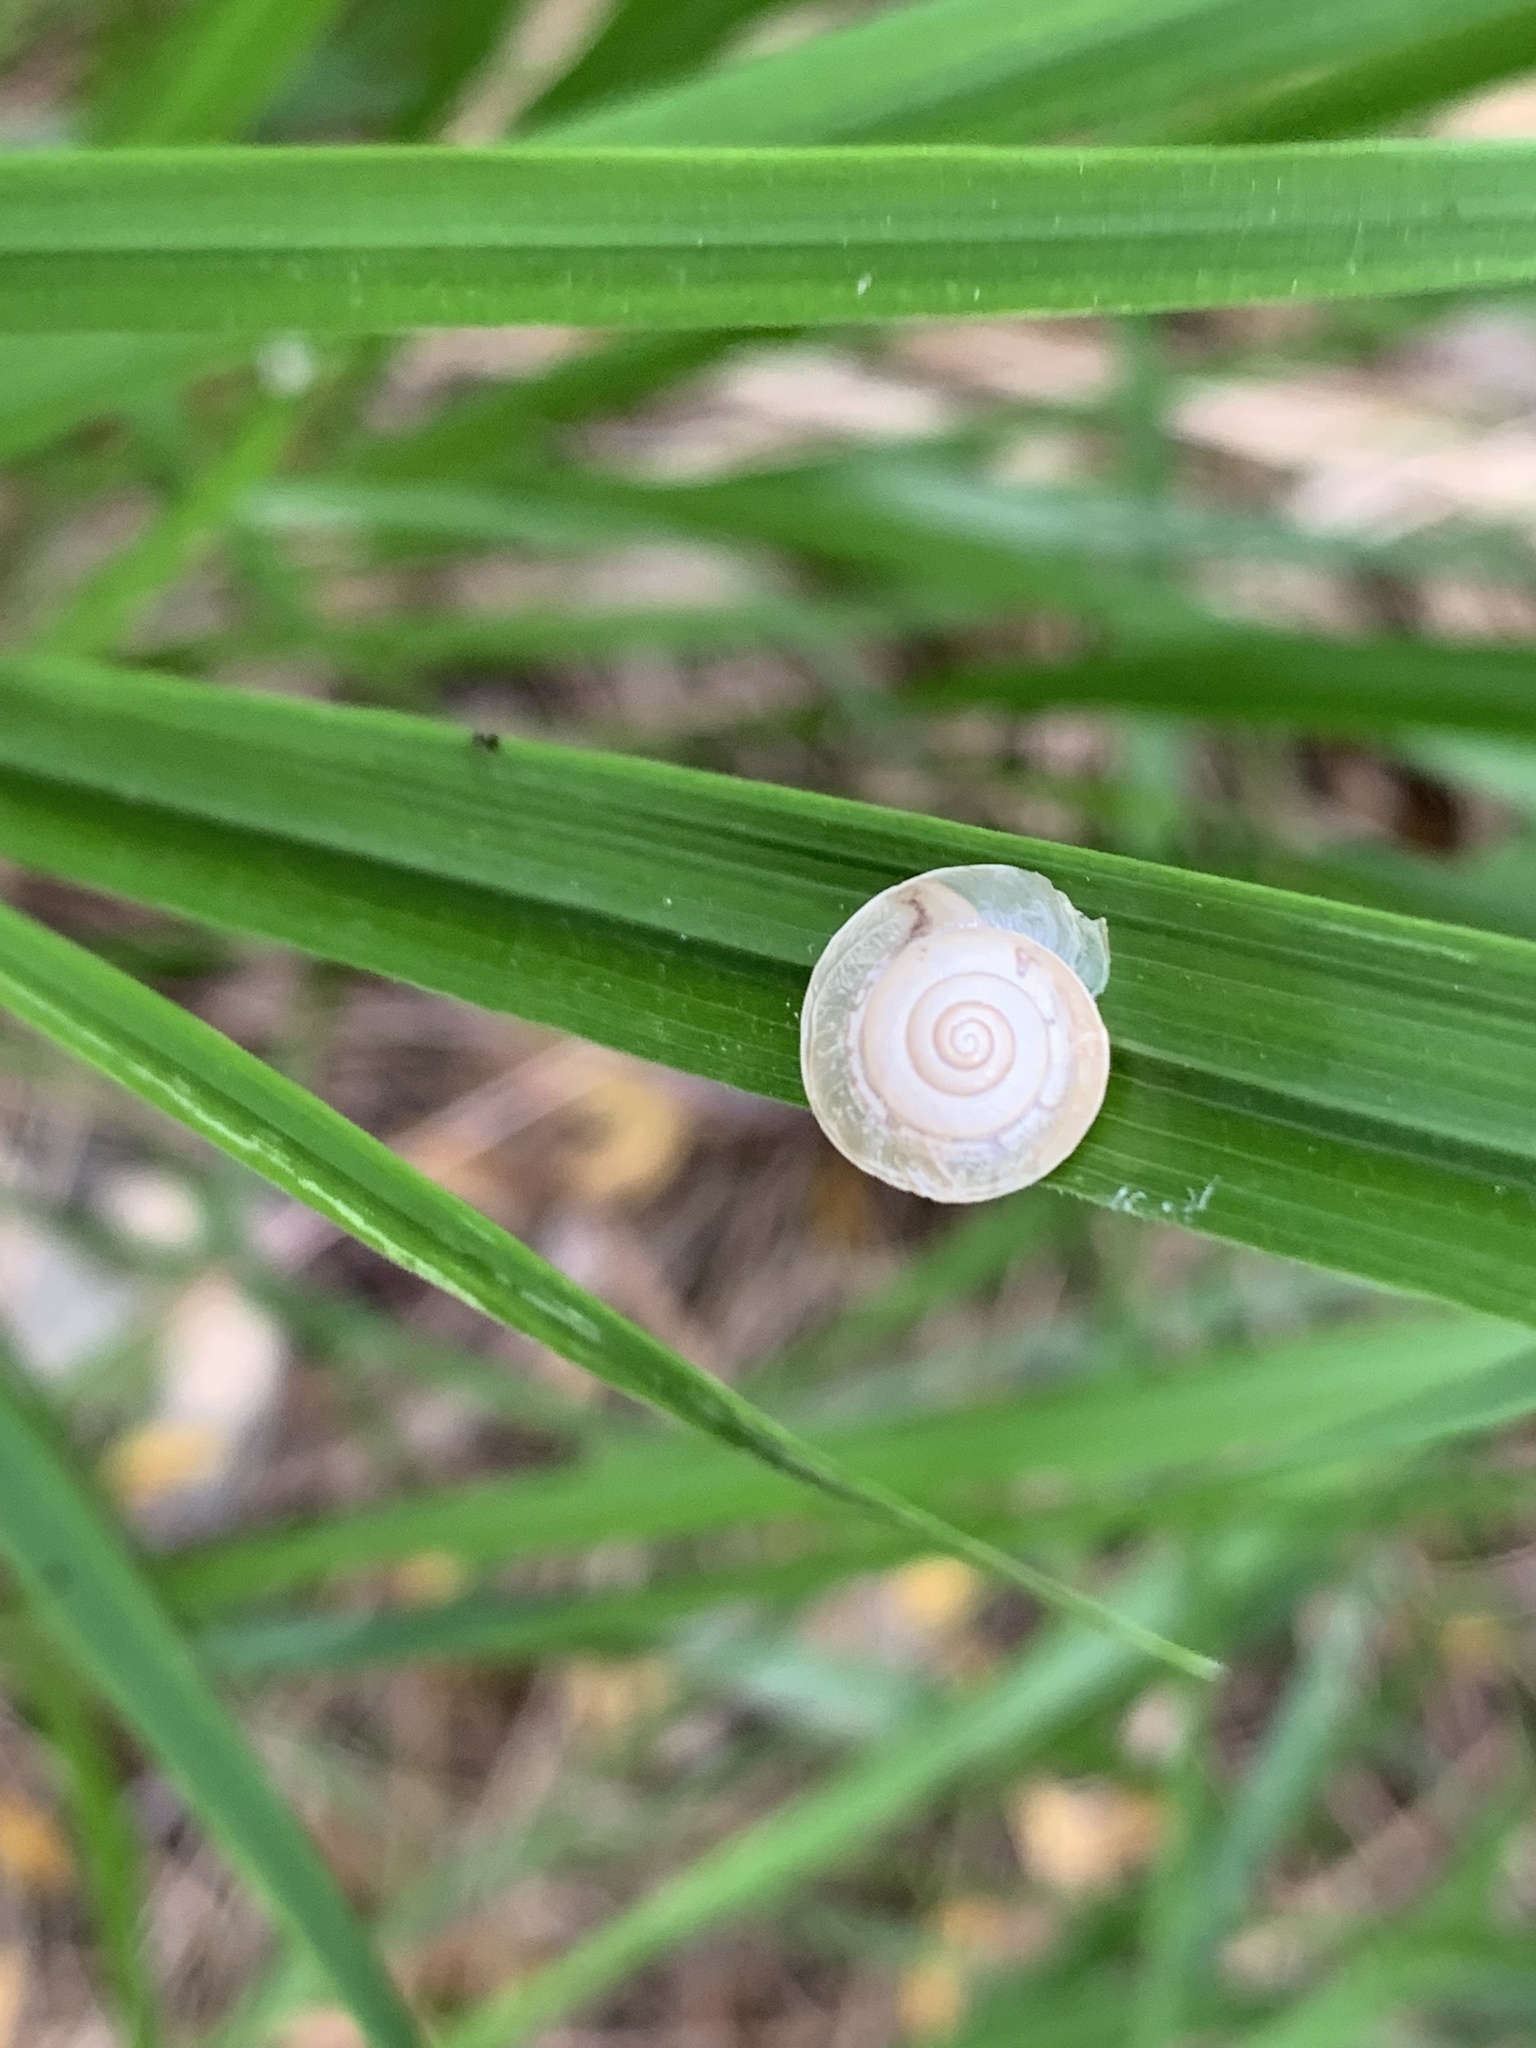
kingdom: Animalia
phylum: Mollusca
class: Gastropoda
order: Stylommatophora
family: Hygromiidae
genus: Hygromia
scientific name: Hygromia cinctella
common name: Girdled snail
